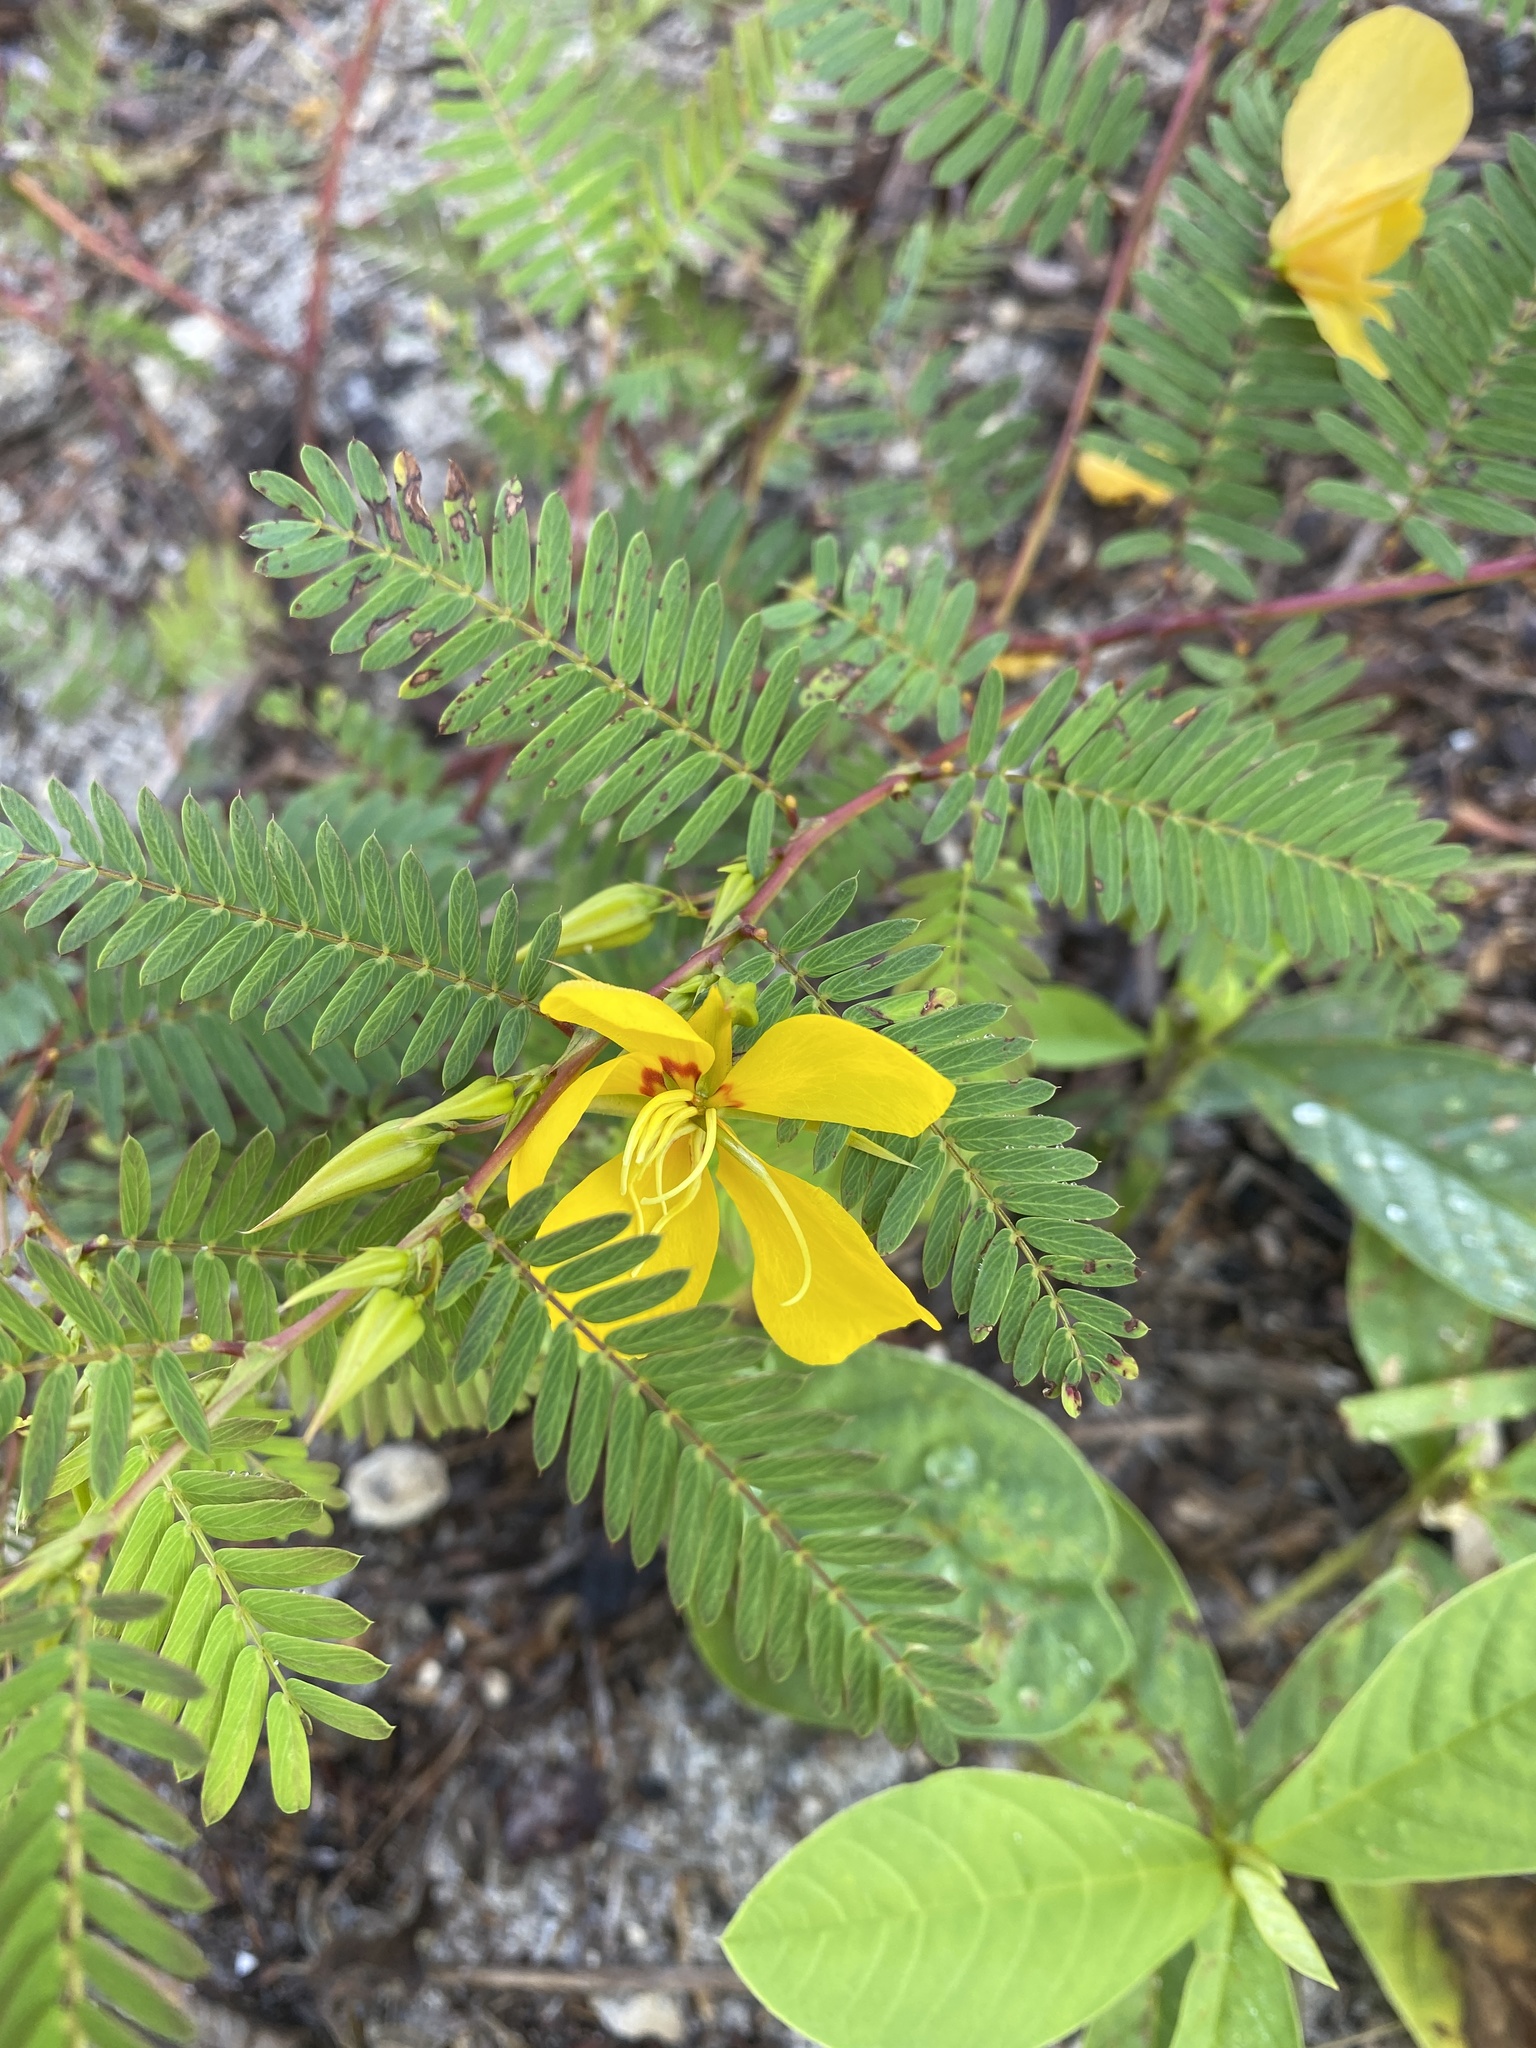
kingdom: Plantae
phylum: Tracheophyta
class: Magnoliopsida
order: Fabales
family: Fabaceae
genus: Chamaecrista
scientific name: Chamaecrista fasciculata
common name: Golden cassia
